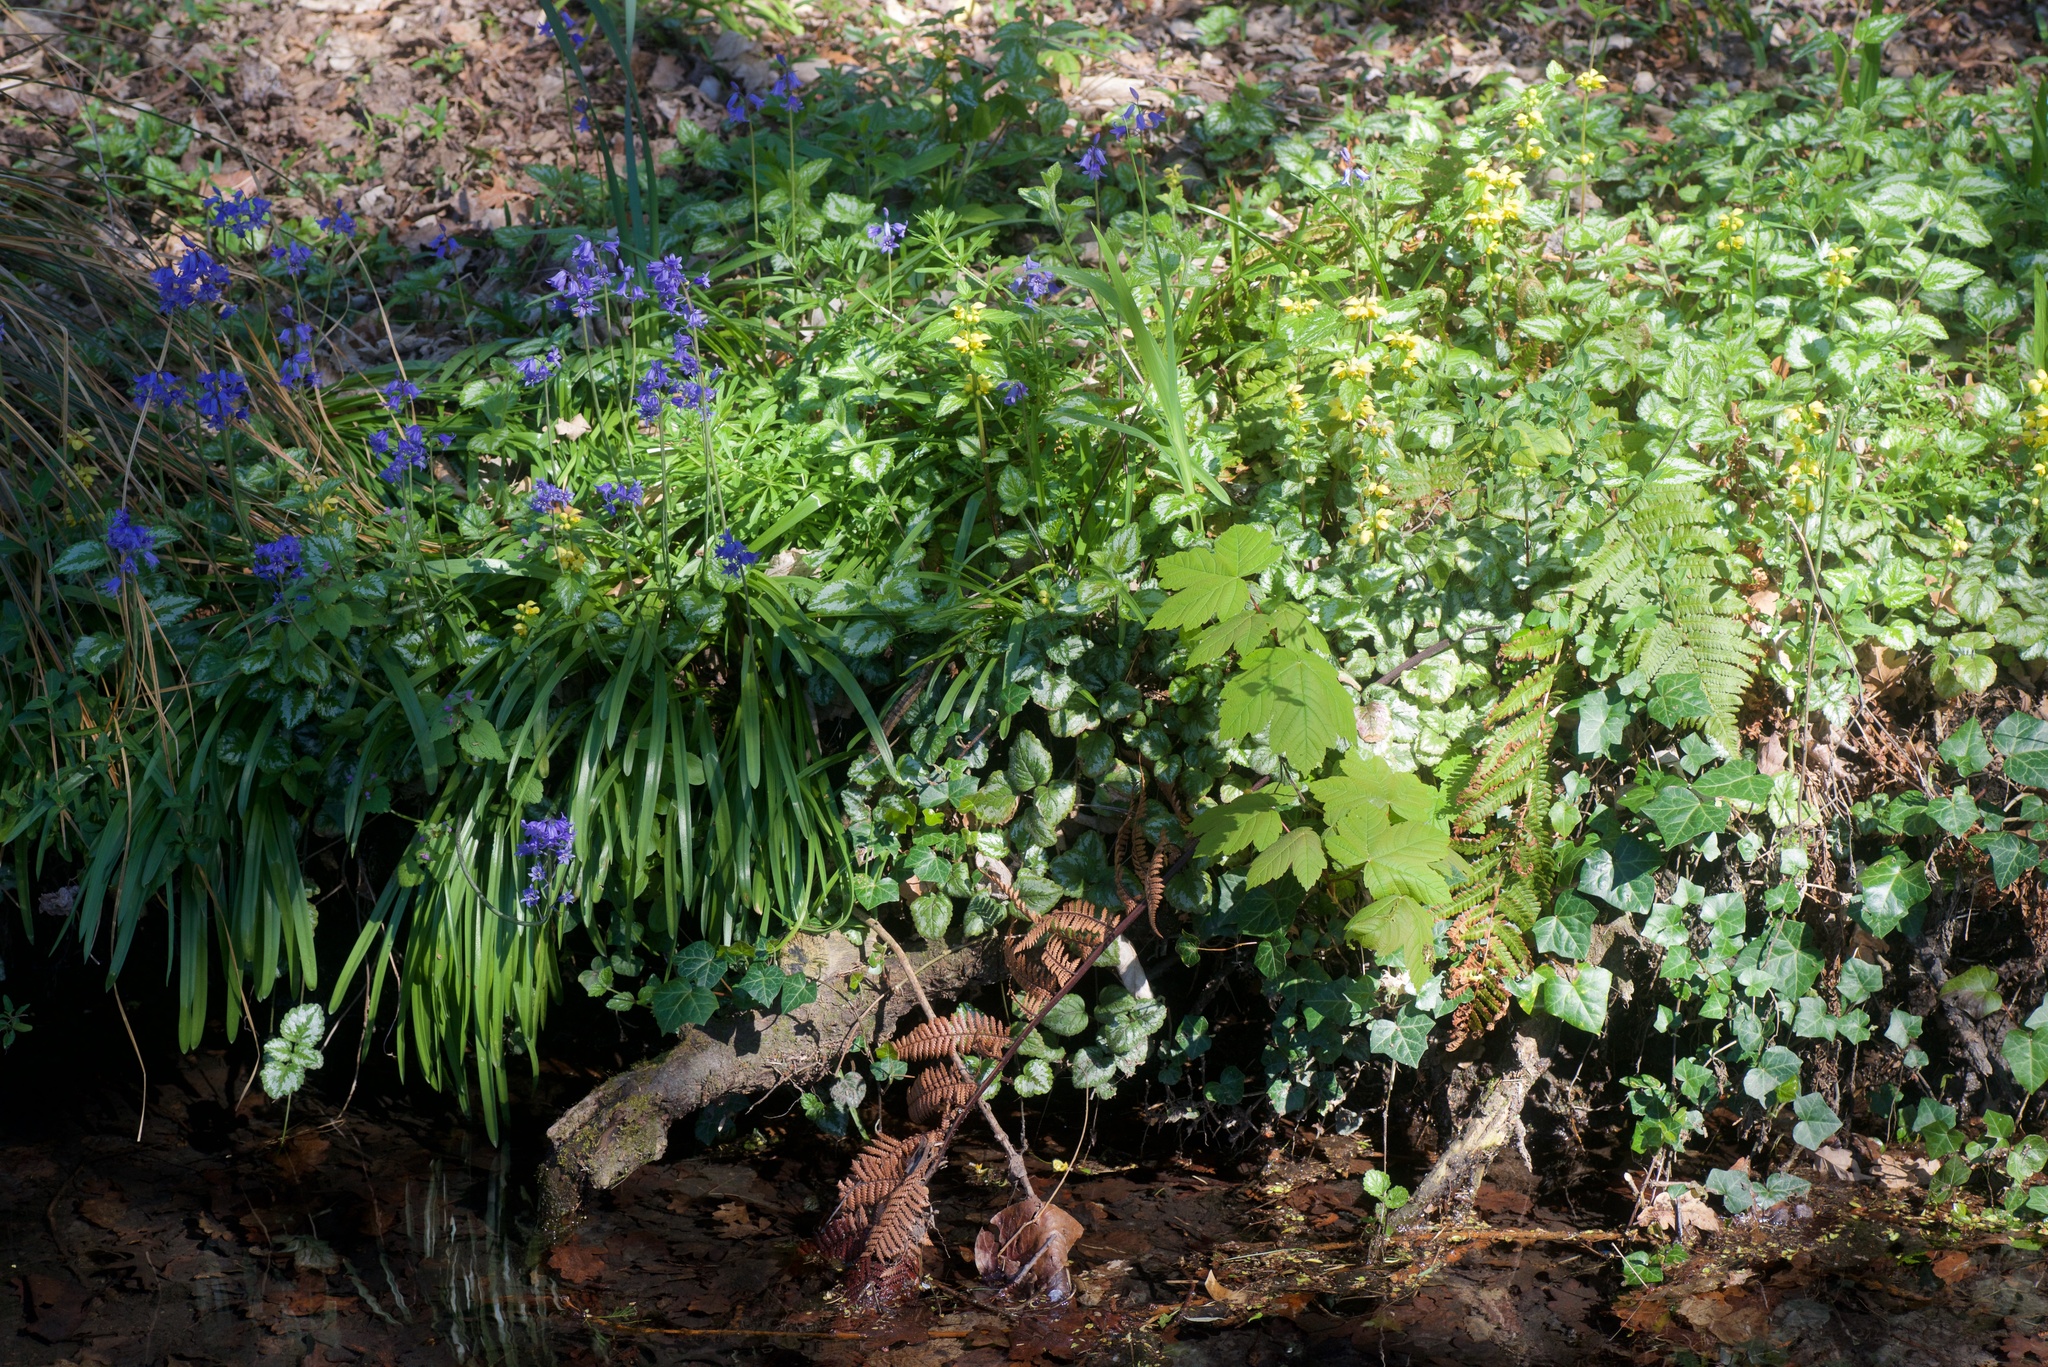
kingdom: Plantae
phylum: Tracheophyta
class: Magnoliopsida
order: Lamiales
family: Lamiaceae
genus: Lamium
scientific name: Lamium galeobdolon
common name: Yellow archangel
